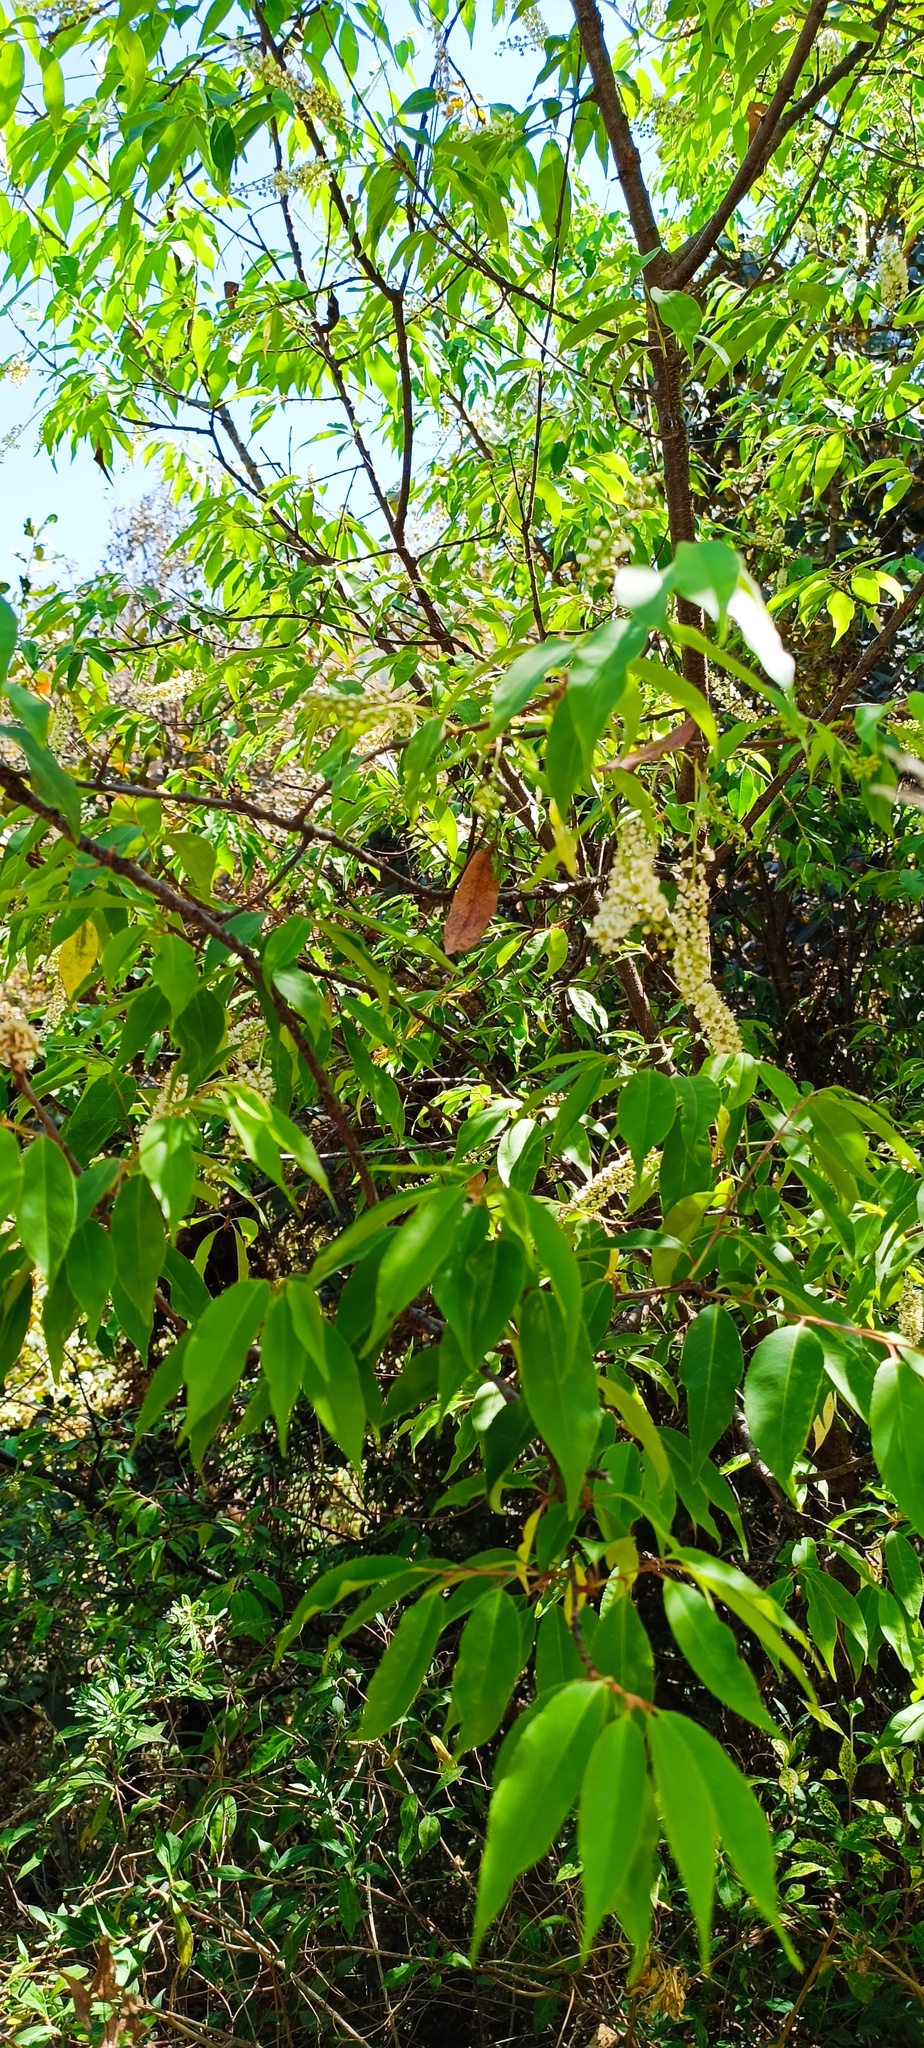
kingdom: Plantae
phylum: Tracheophyta
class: Magnoliopsida
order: Rosales
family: Rosaceae
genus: Prunus
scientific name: Prunus serotina
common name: Black cherry
